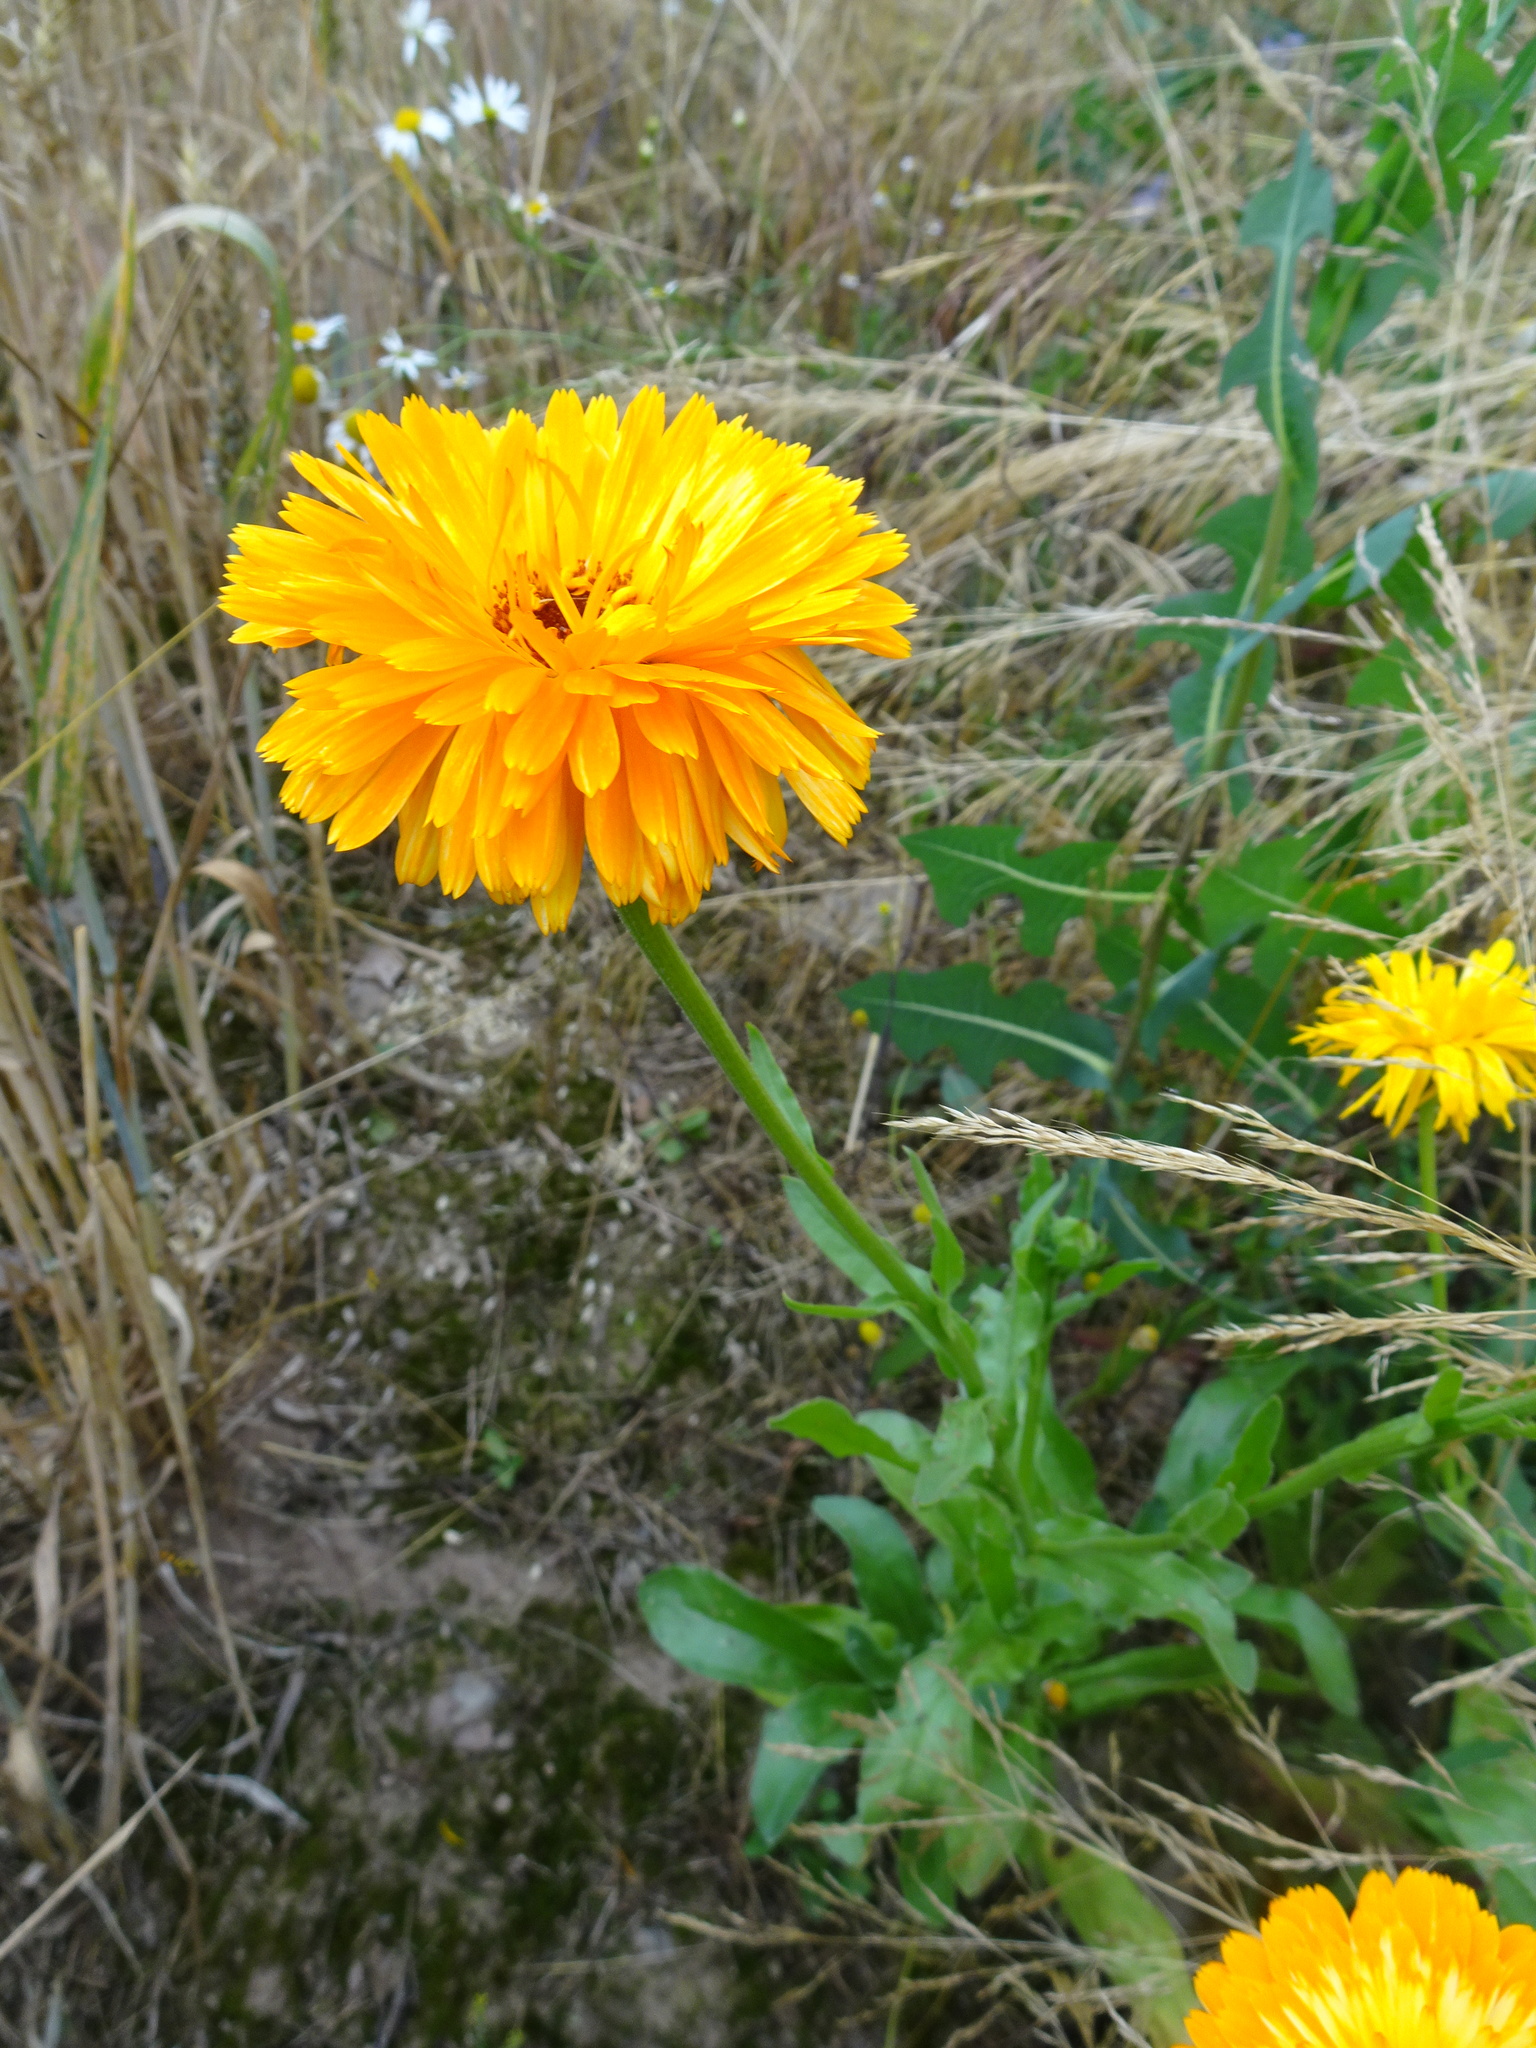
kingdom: Plantae
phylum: Tracheophyta
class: Magnoliopsida
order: Asterales
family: Asteraceae
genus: Calendula
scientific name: Calendula officinalis
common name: Pot marigold
